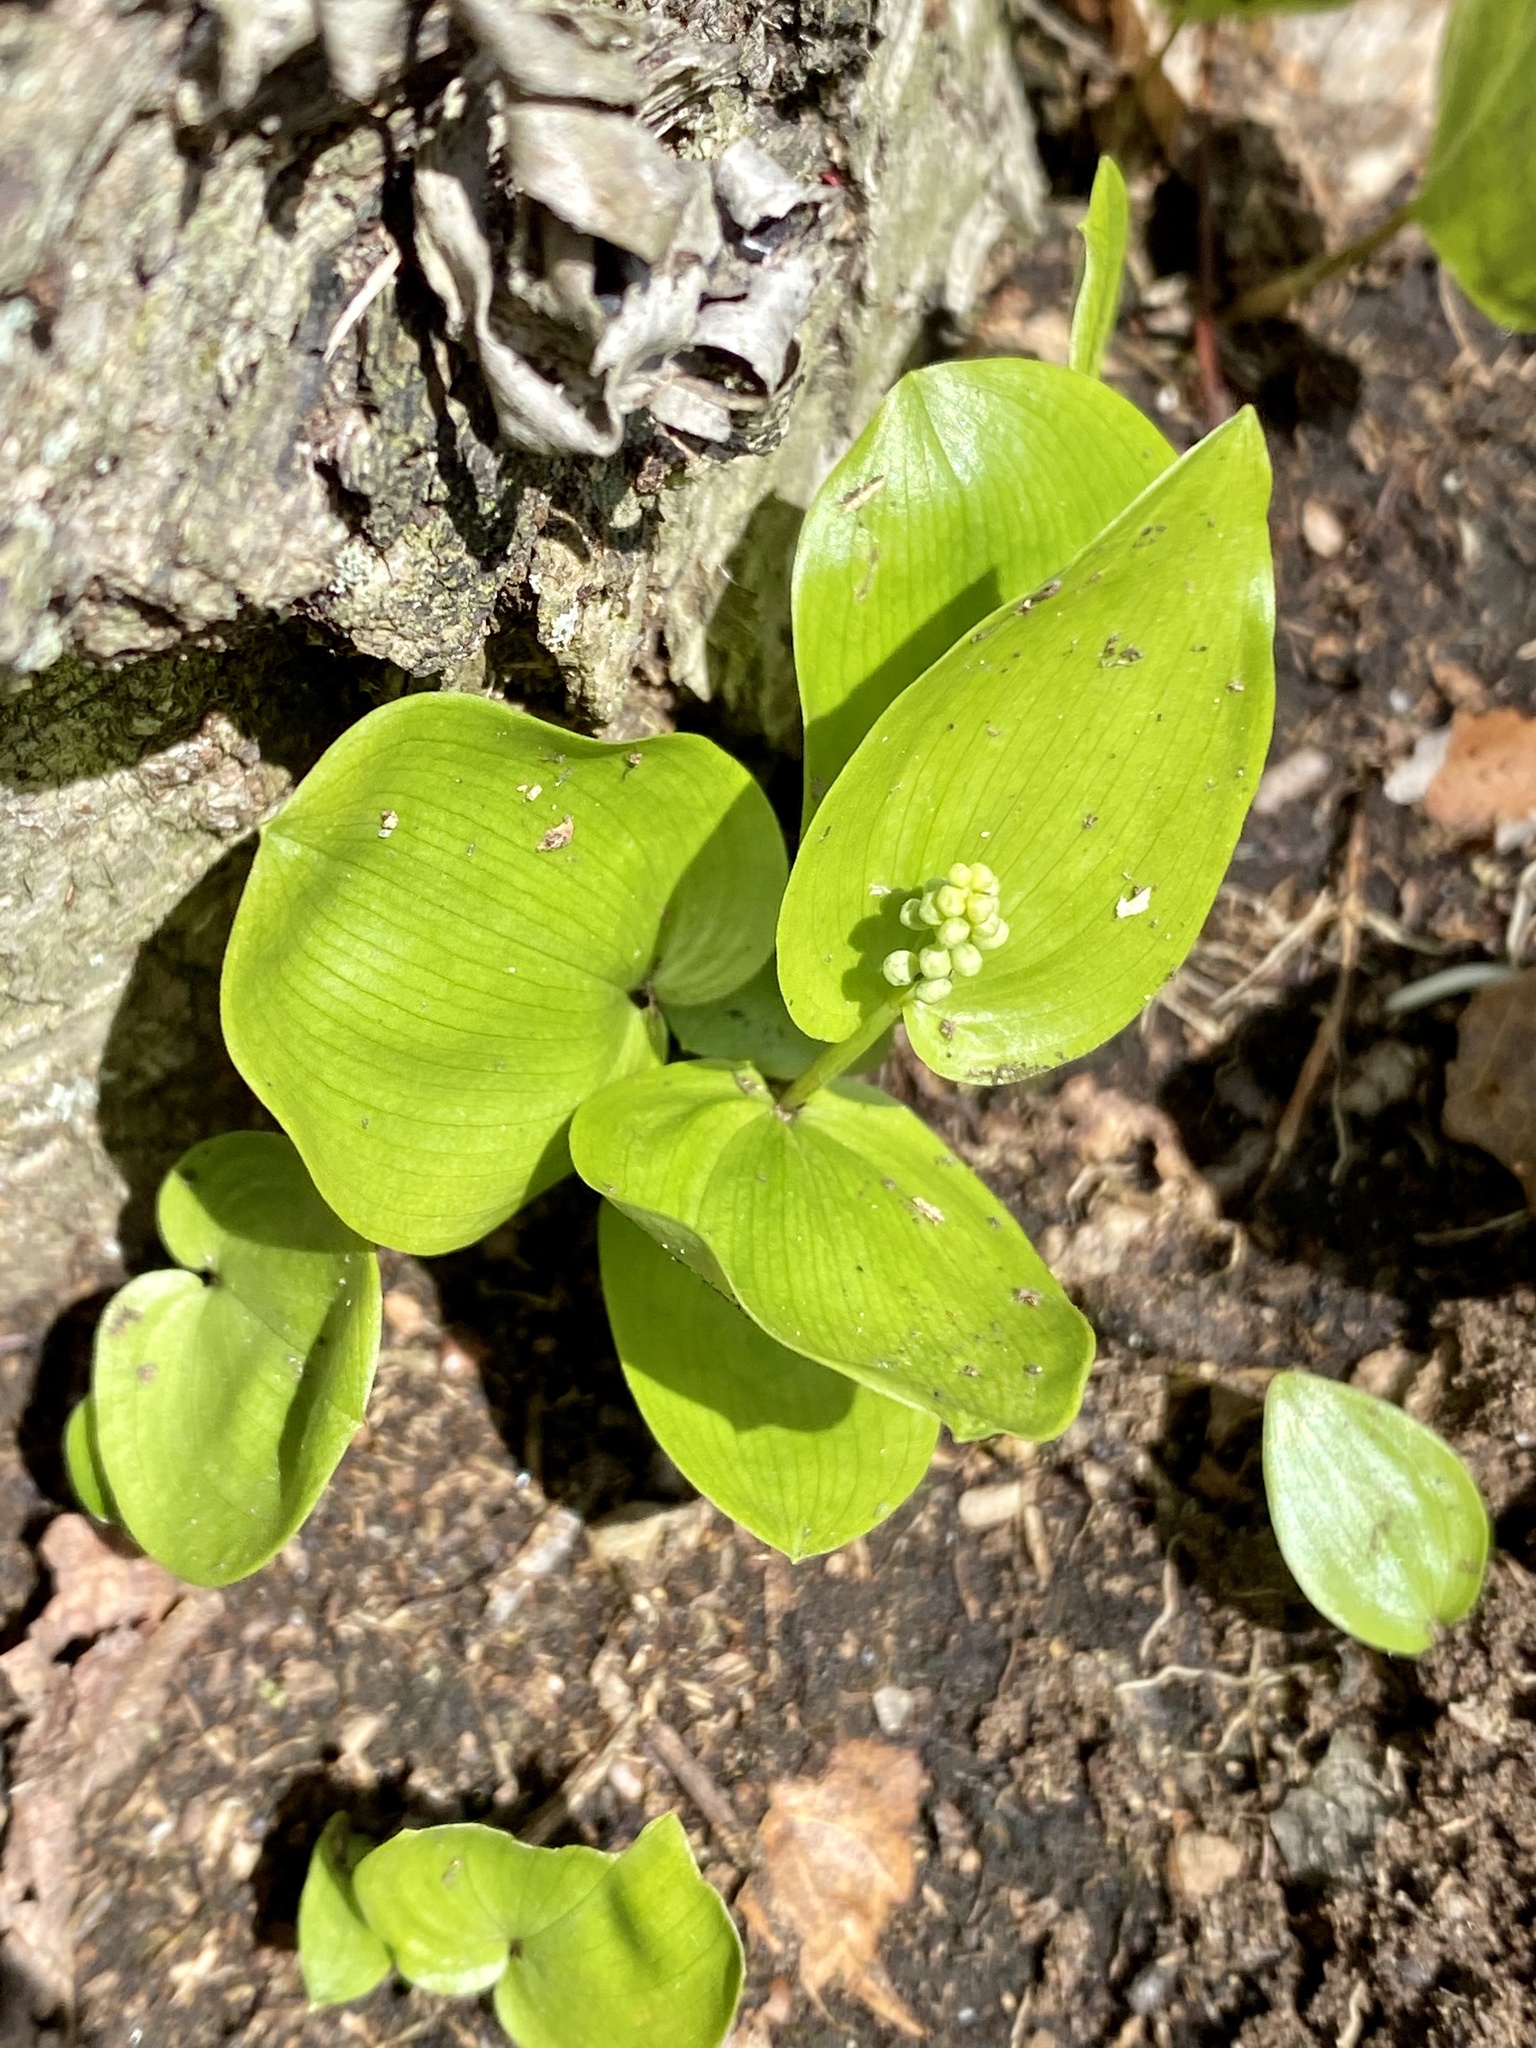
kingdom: Plantae
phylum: Tracheophyta
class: Liliopsida
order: Asparagales
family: Asparagaceae
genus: Maianthemum
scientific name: Maianthemum canadense
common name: False lily-of-the-valley
